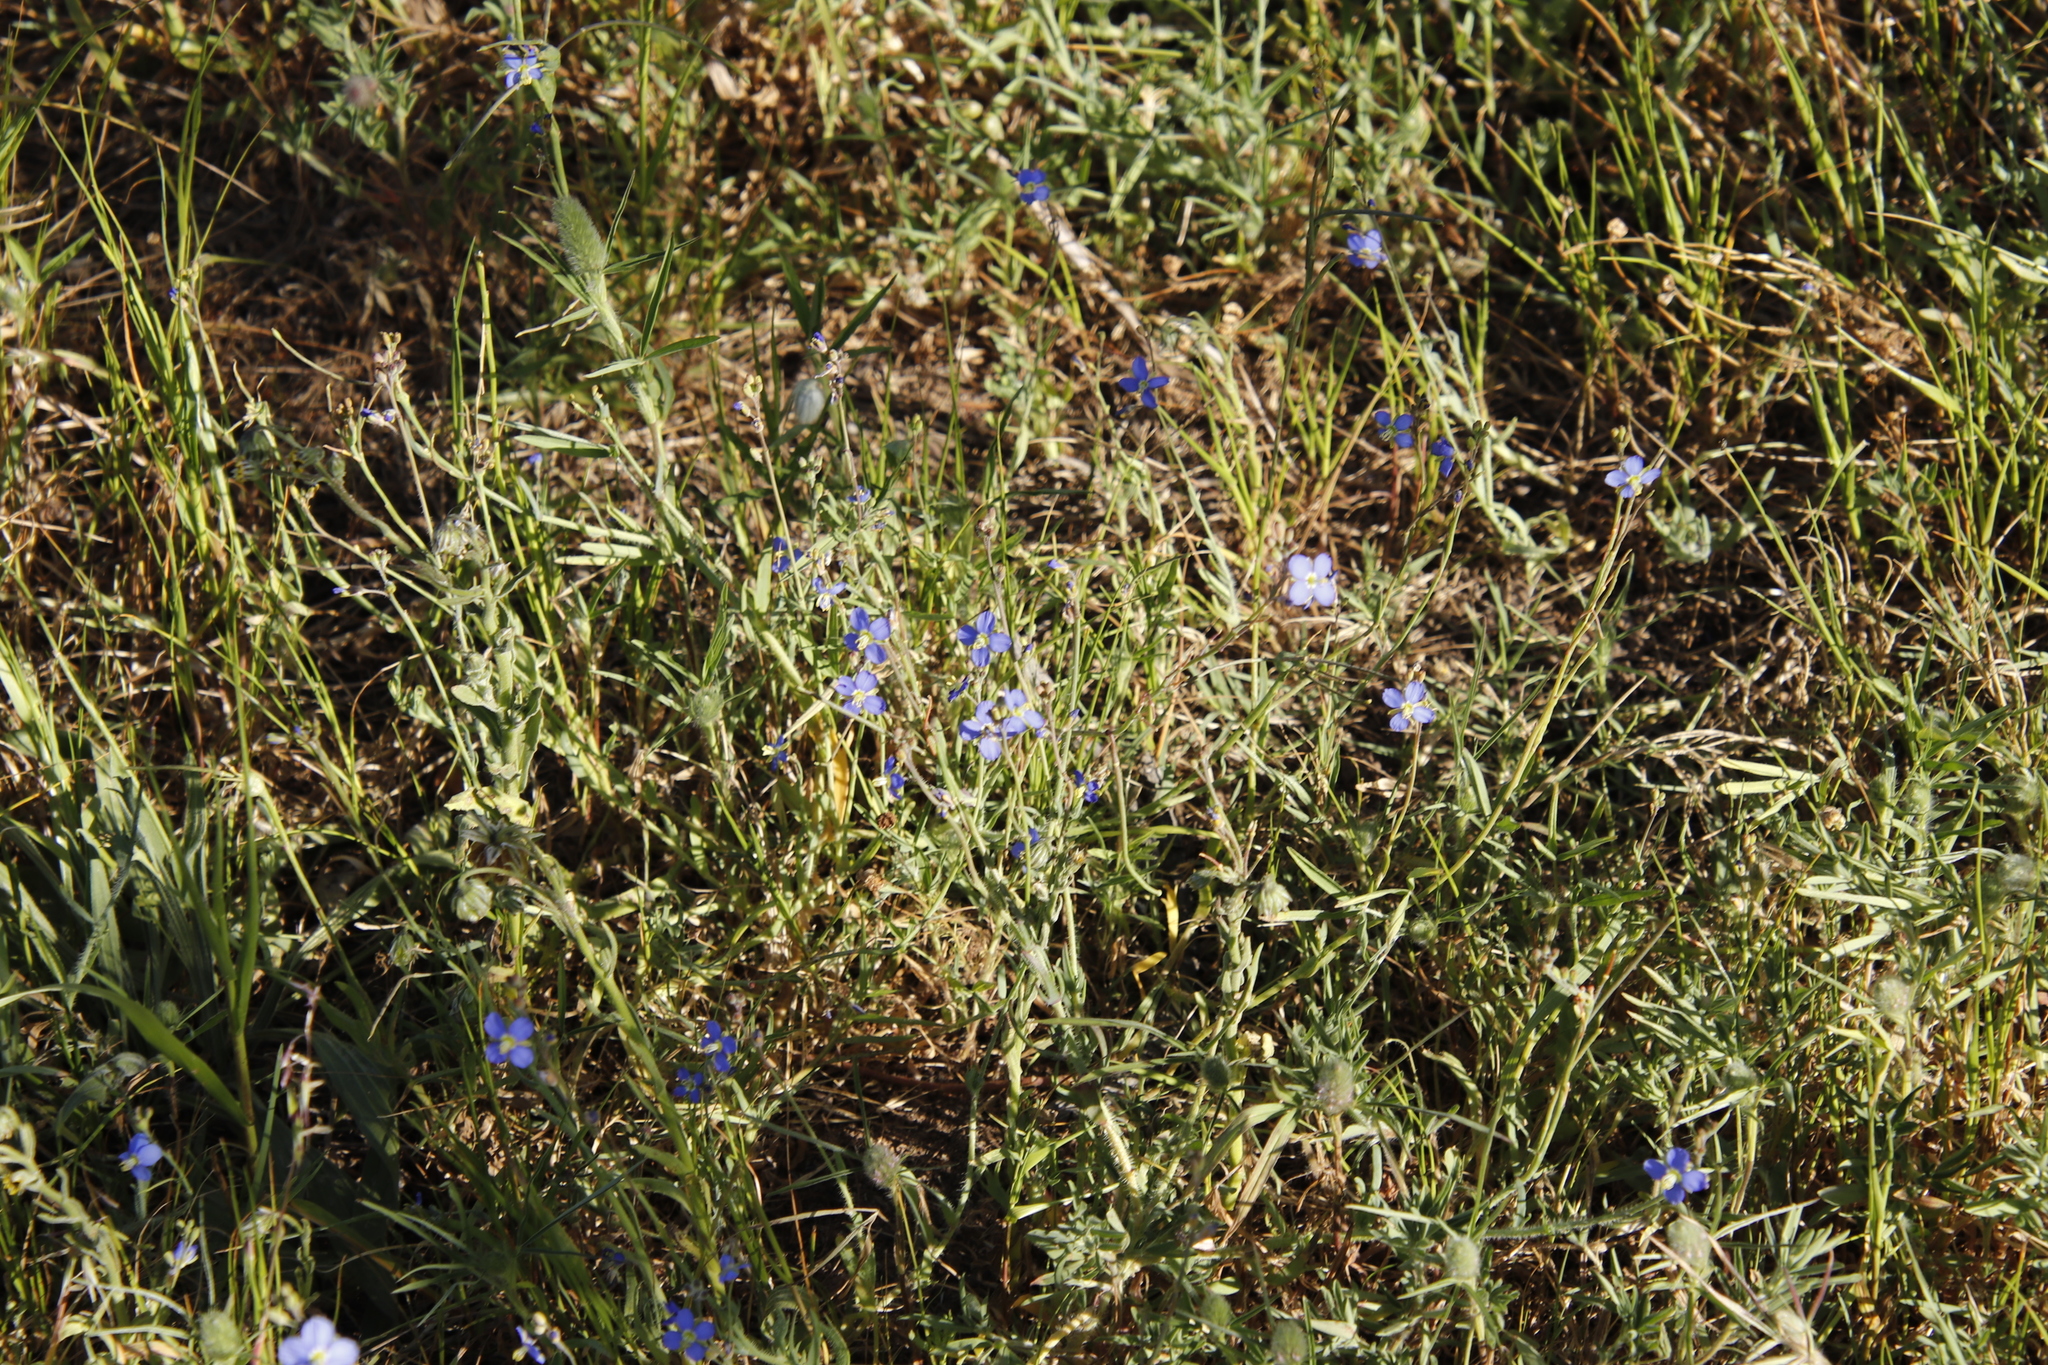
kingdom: Plantae
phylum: Tracheophyta
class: Magnoliopsida
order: Brassicales
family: Brassicaceae
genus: Heliophila
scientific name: Heliophila africana
